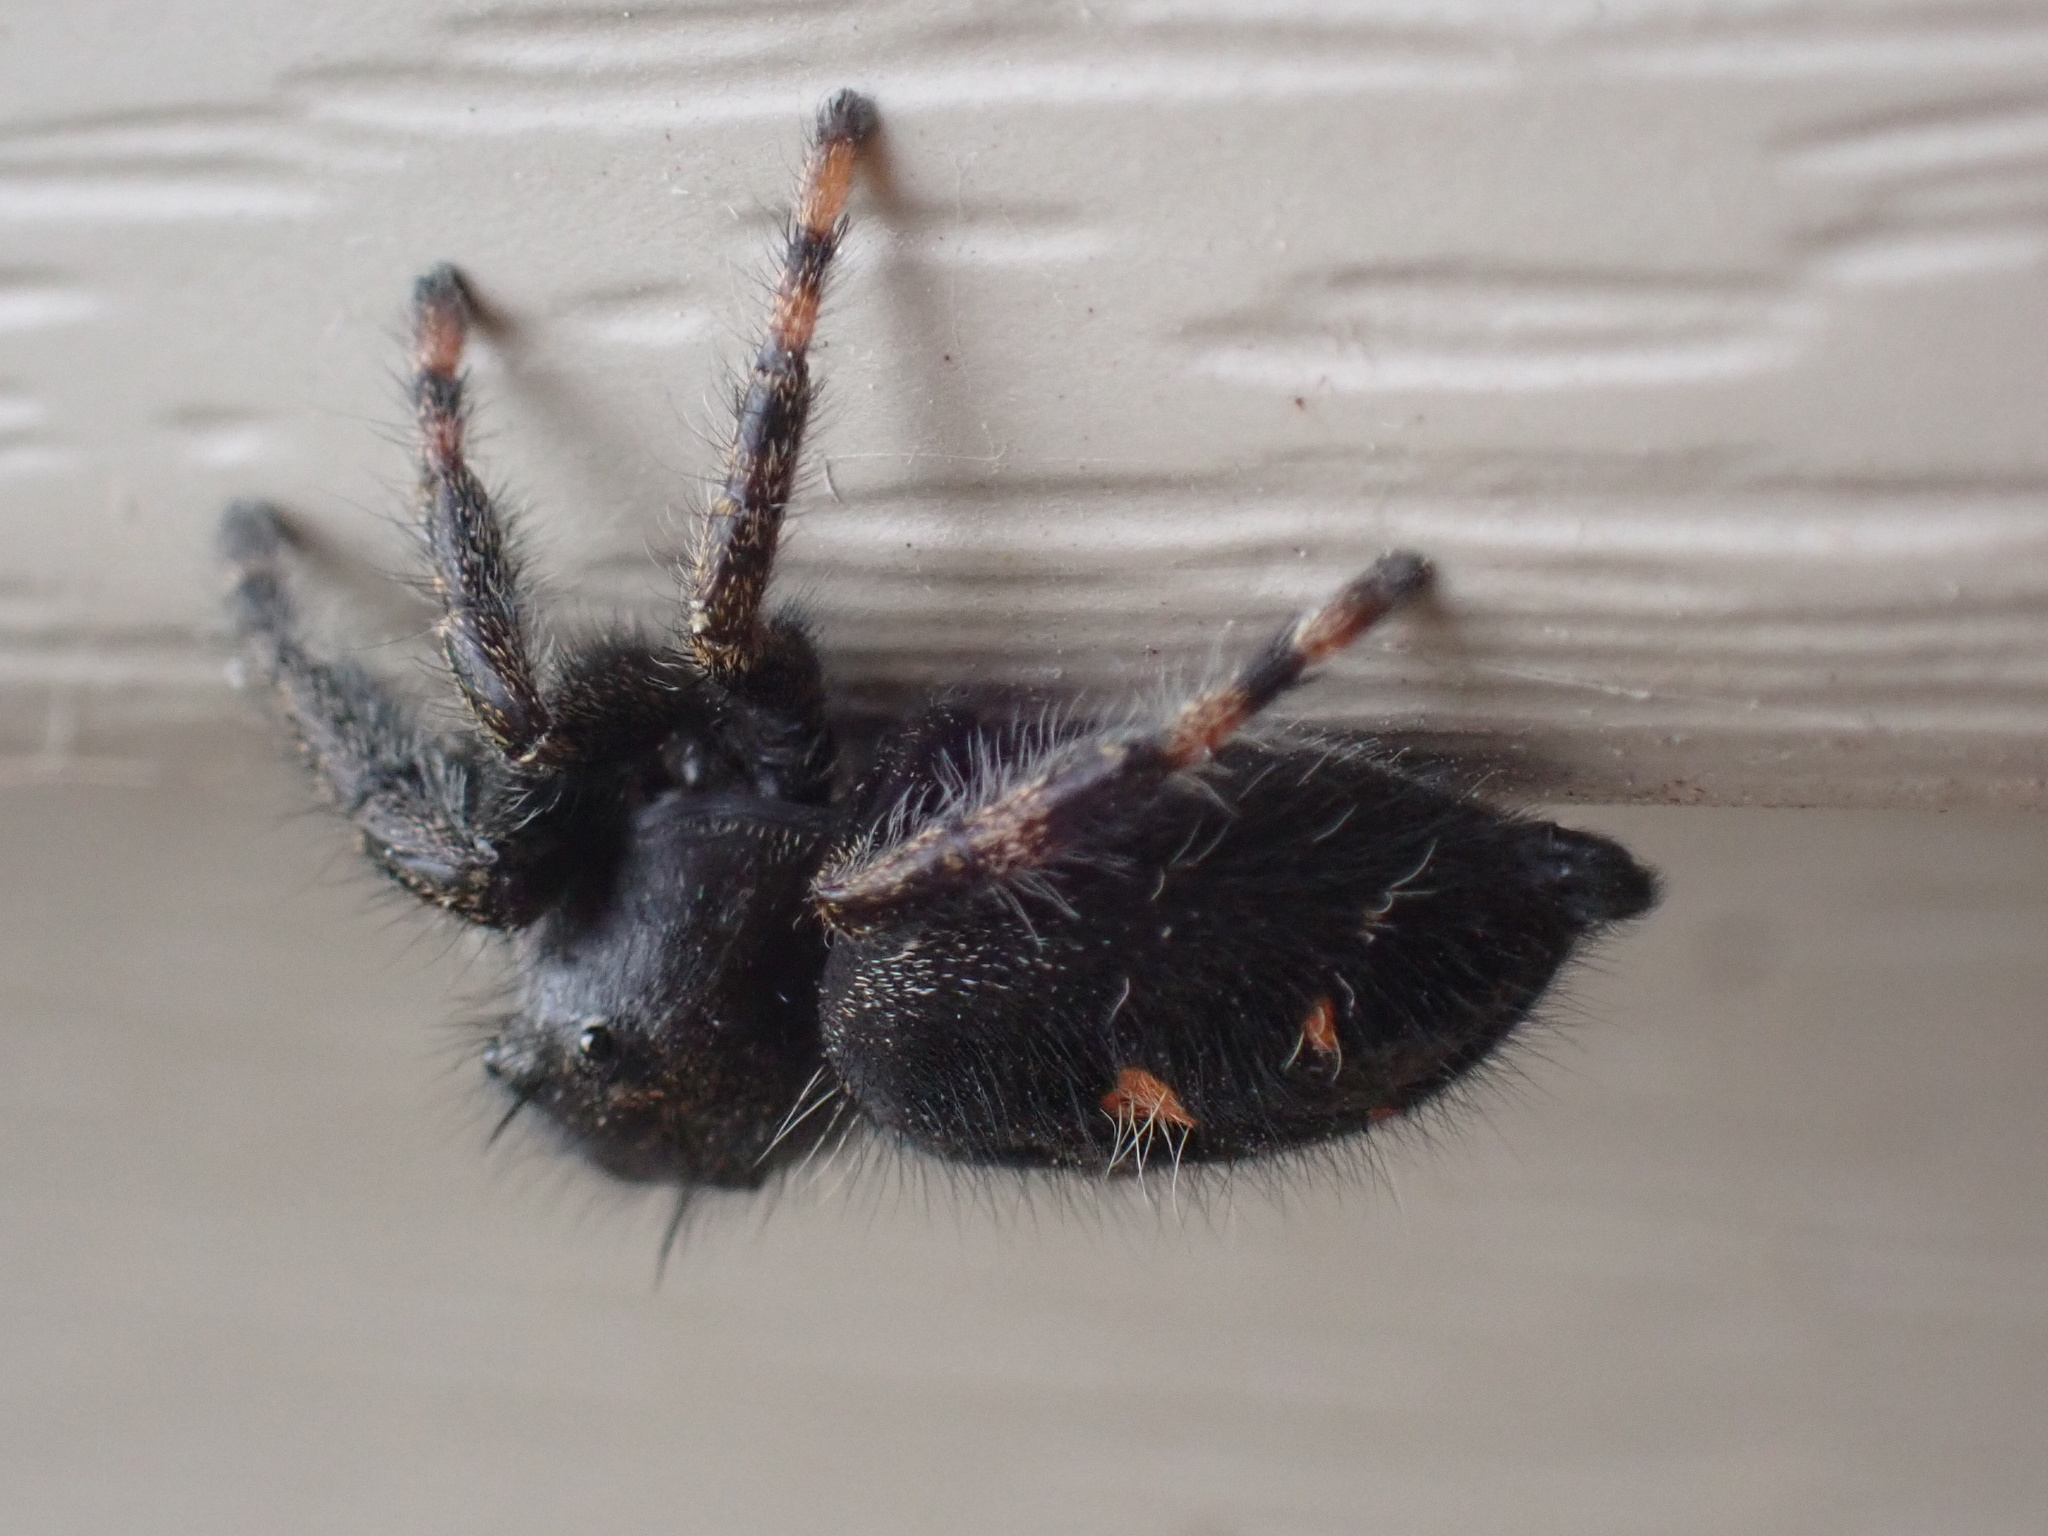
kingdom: Animalia
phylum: Arthropoda
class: Arachnida
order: Araneae
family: Salticidae
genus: Phidippus
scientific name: Phidippus audax
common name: Bold jumper
